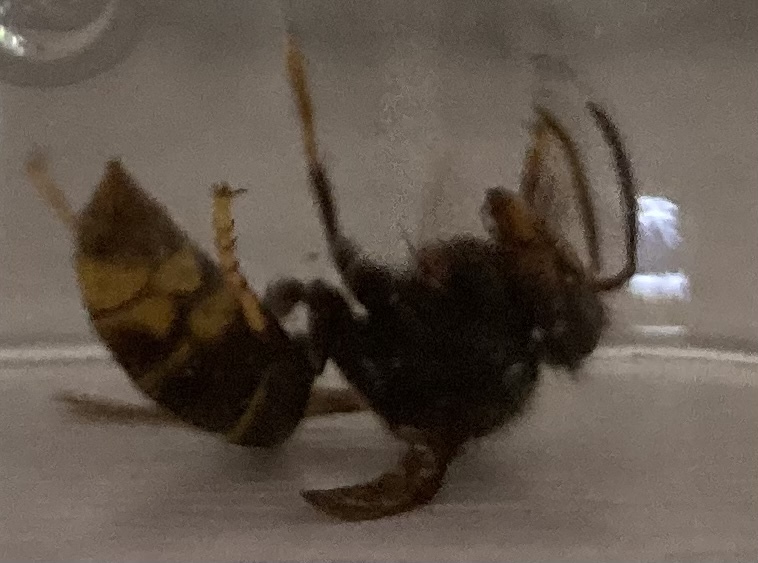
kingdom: Animalia
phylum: Arthropoda
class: Insecta
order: Hymenoptera
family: Vespidae
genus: Vespa
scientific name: Vespa velutina
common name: Asian hornet
